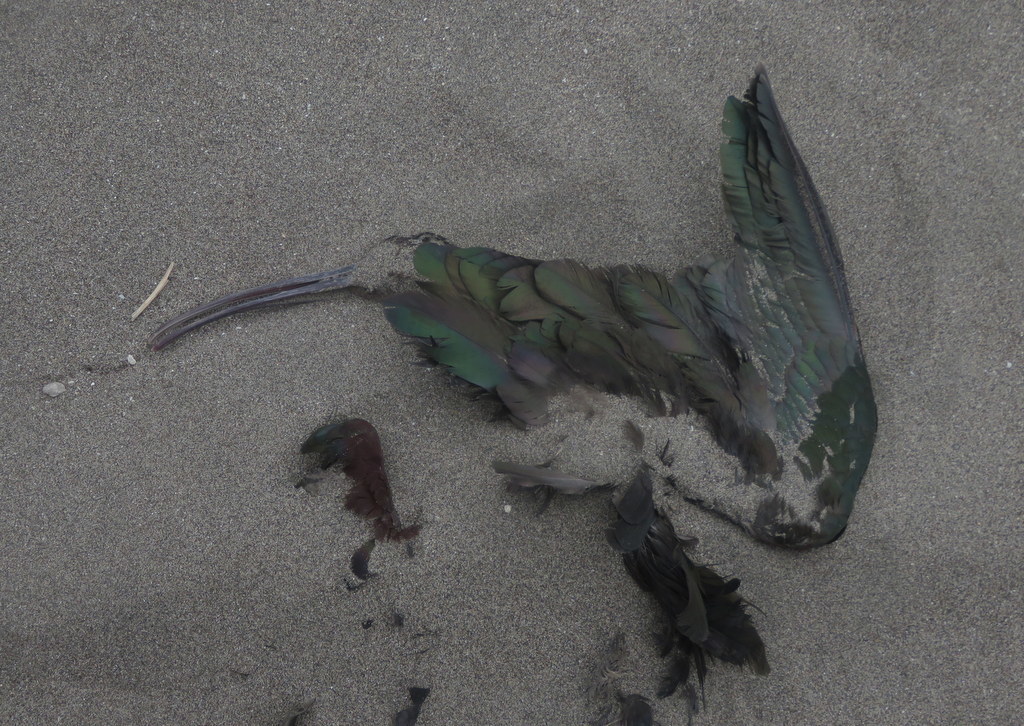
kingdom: Animalia
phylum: Chordata
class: Aves
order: Pelecaniformes
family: Threskiornithidae
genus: Plegadis
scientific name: Plegadis chihi
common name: White-faced ibis
